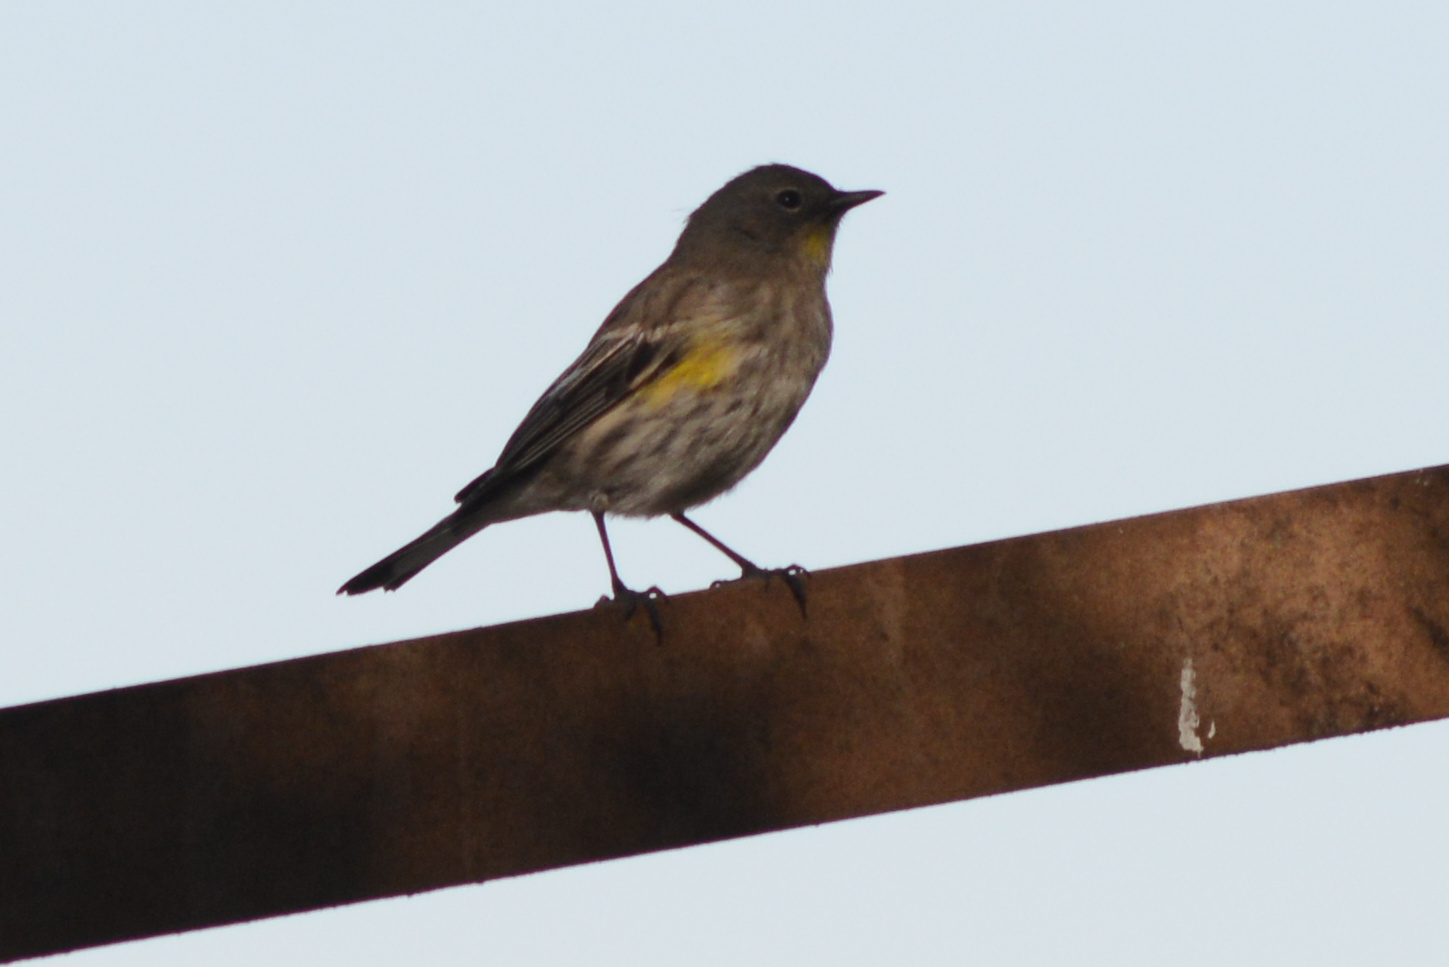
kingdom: Animalia
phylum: Chordata
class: Aves
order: Passeriformes
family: Parulidae
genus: Setophaga
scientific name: Setophaga auduboni
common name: Audubon's warbler
